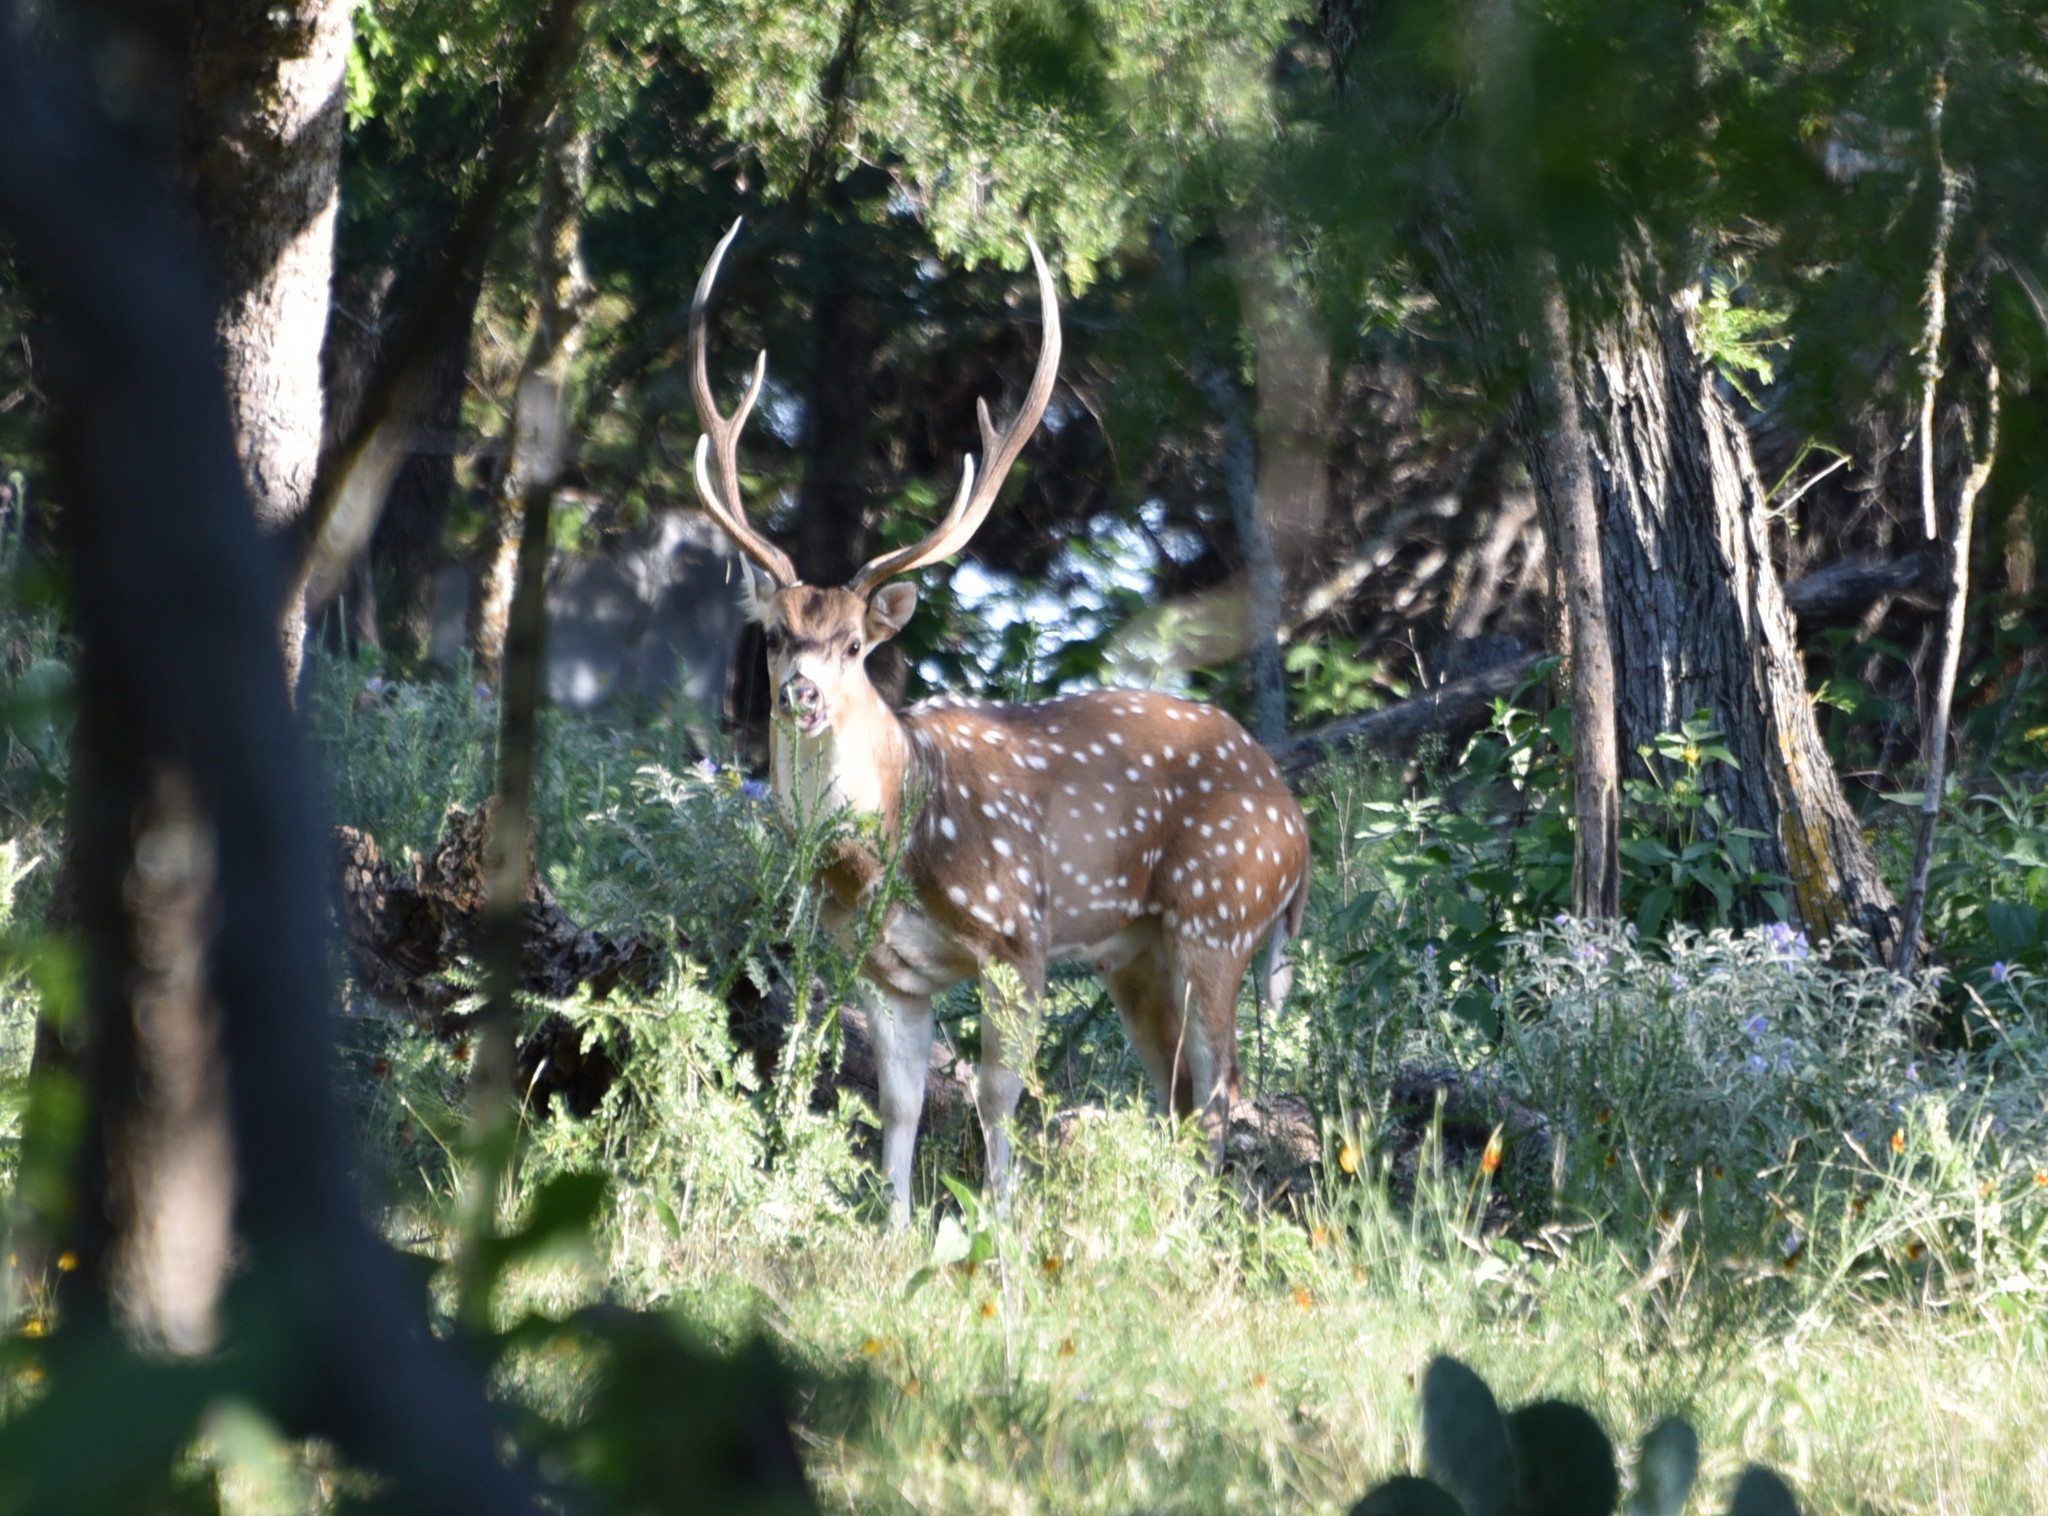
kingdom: Animalia
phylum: Chordata
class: Mammalia
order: Artiodactyla
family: Cervidae
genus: Axis
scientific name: Axis axis
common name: Chital
